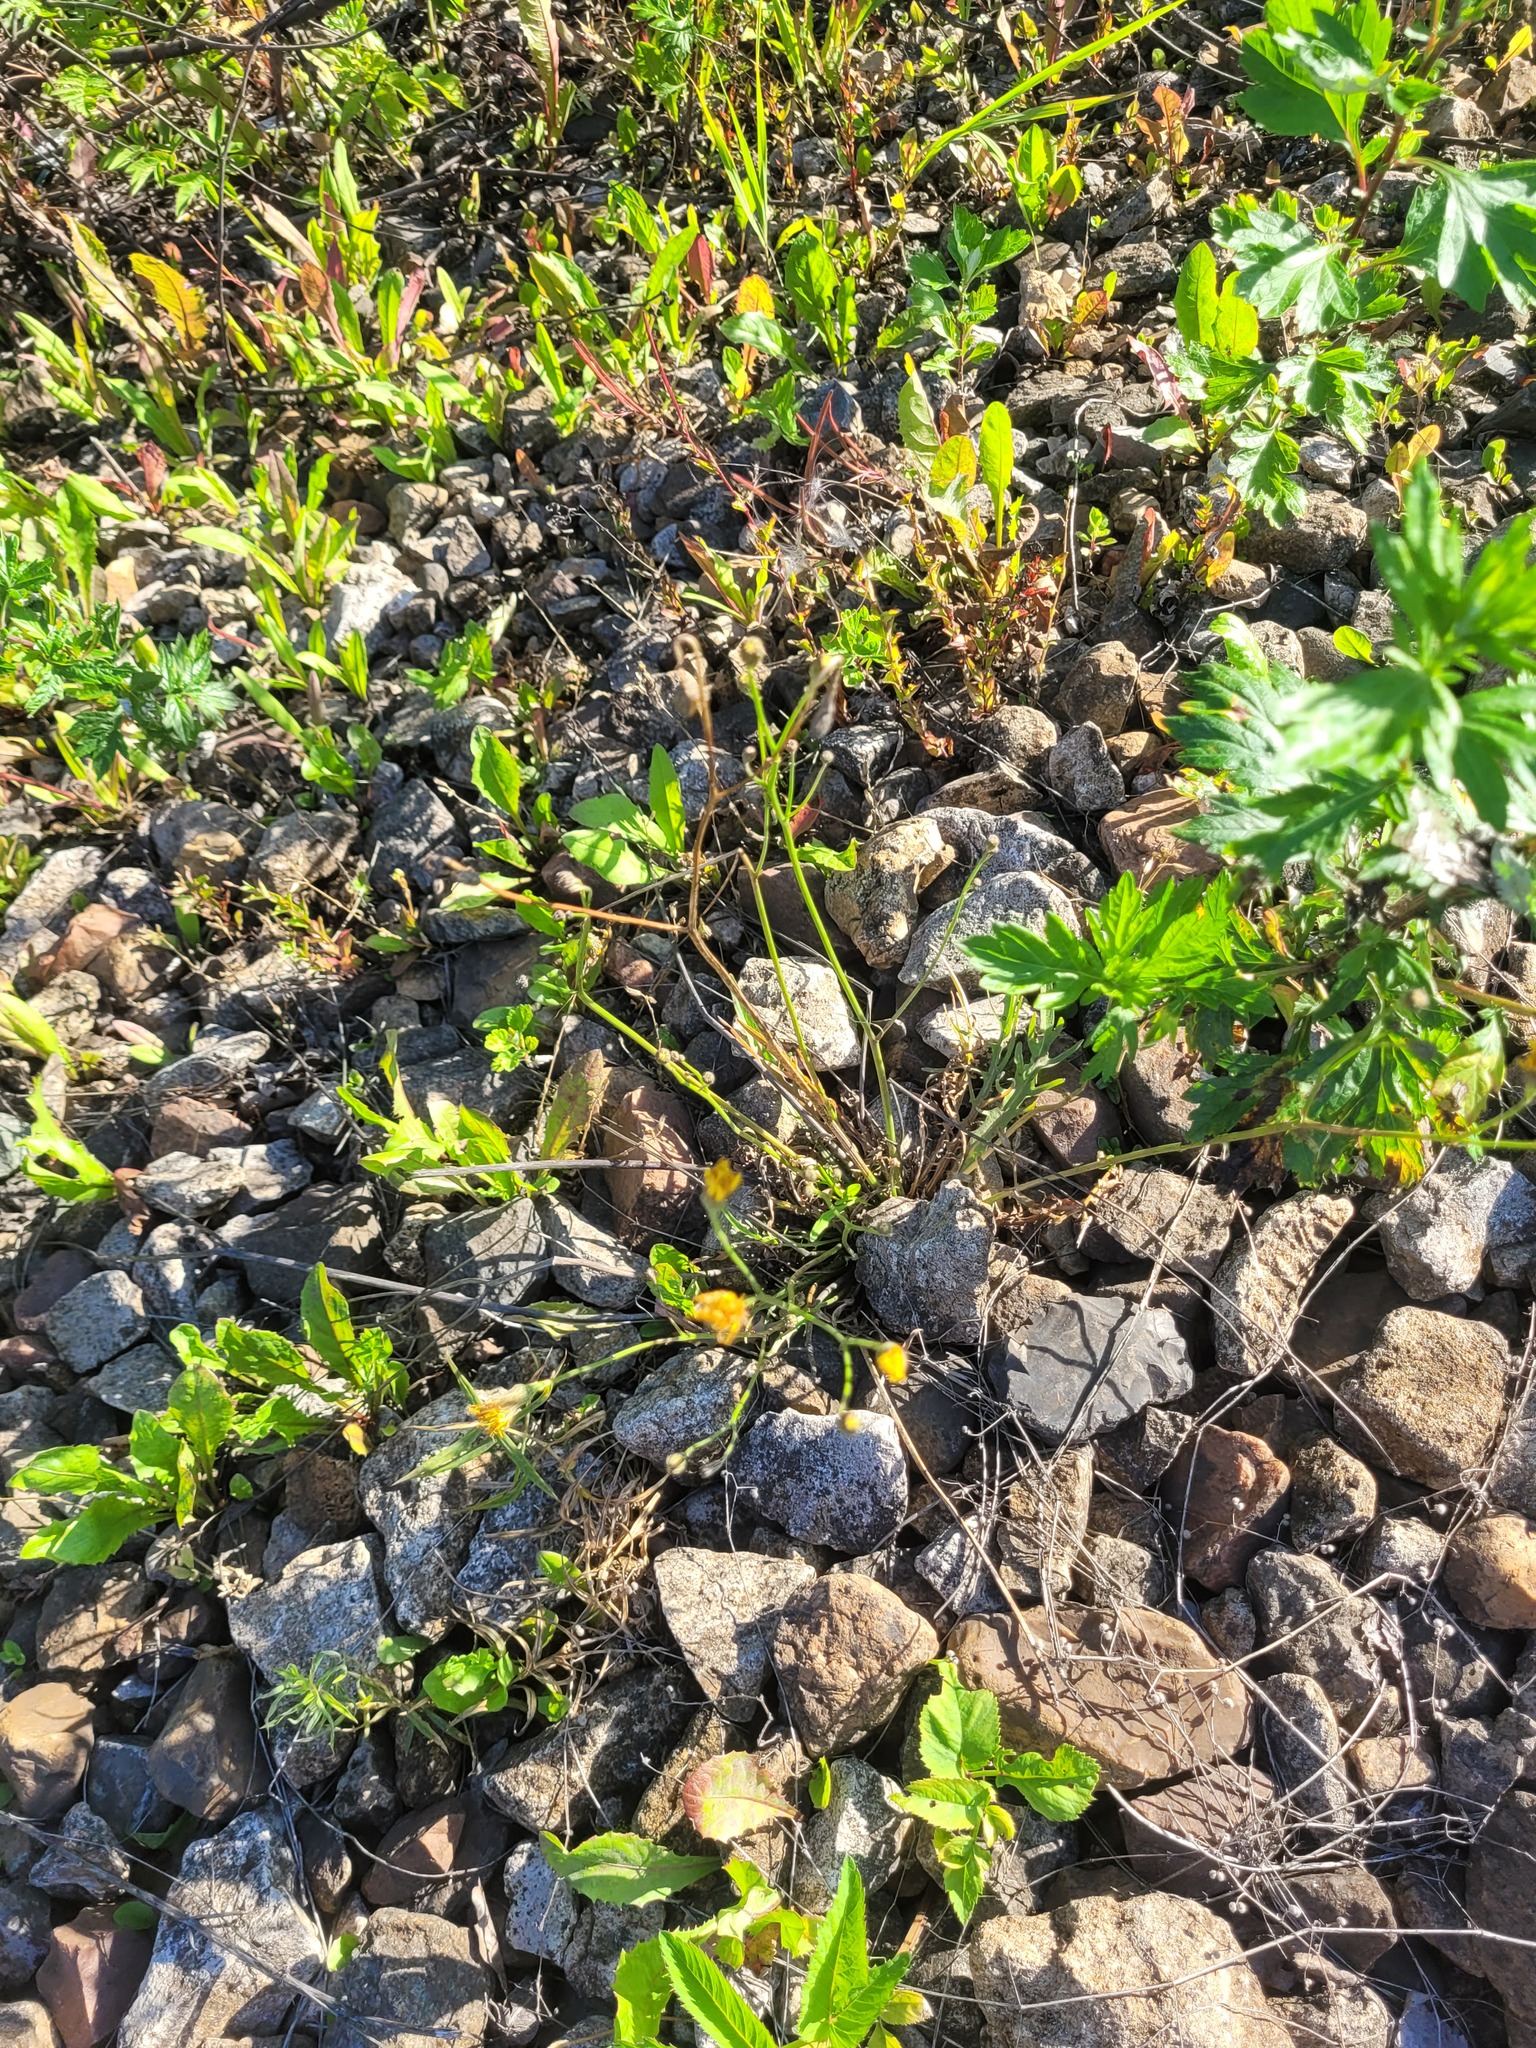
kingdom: Plantae
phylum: Tracheophyta
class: Magnoliopsida
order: Asterales
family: Asteraceae
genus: Scorzoneroides
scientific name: Scorzoneroides autumnalis
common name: Autumn hawkbit
